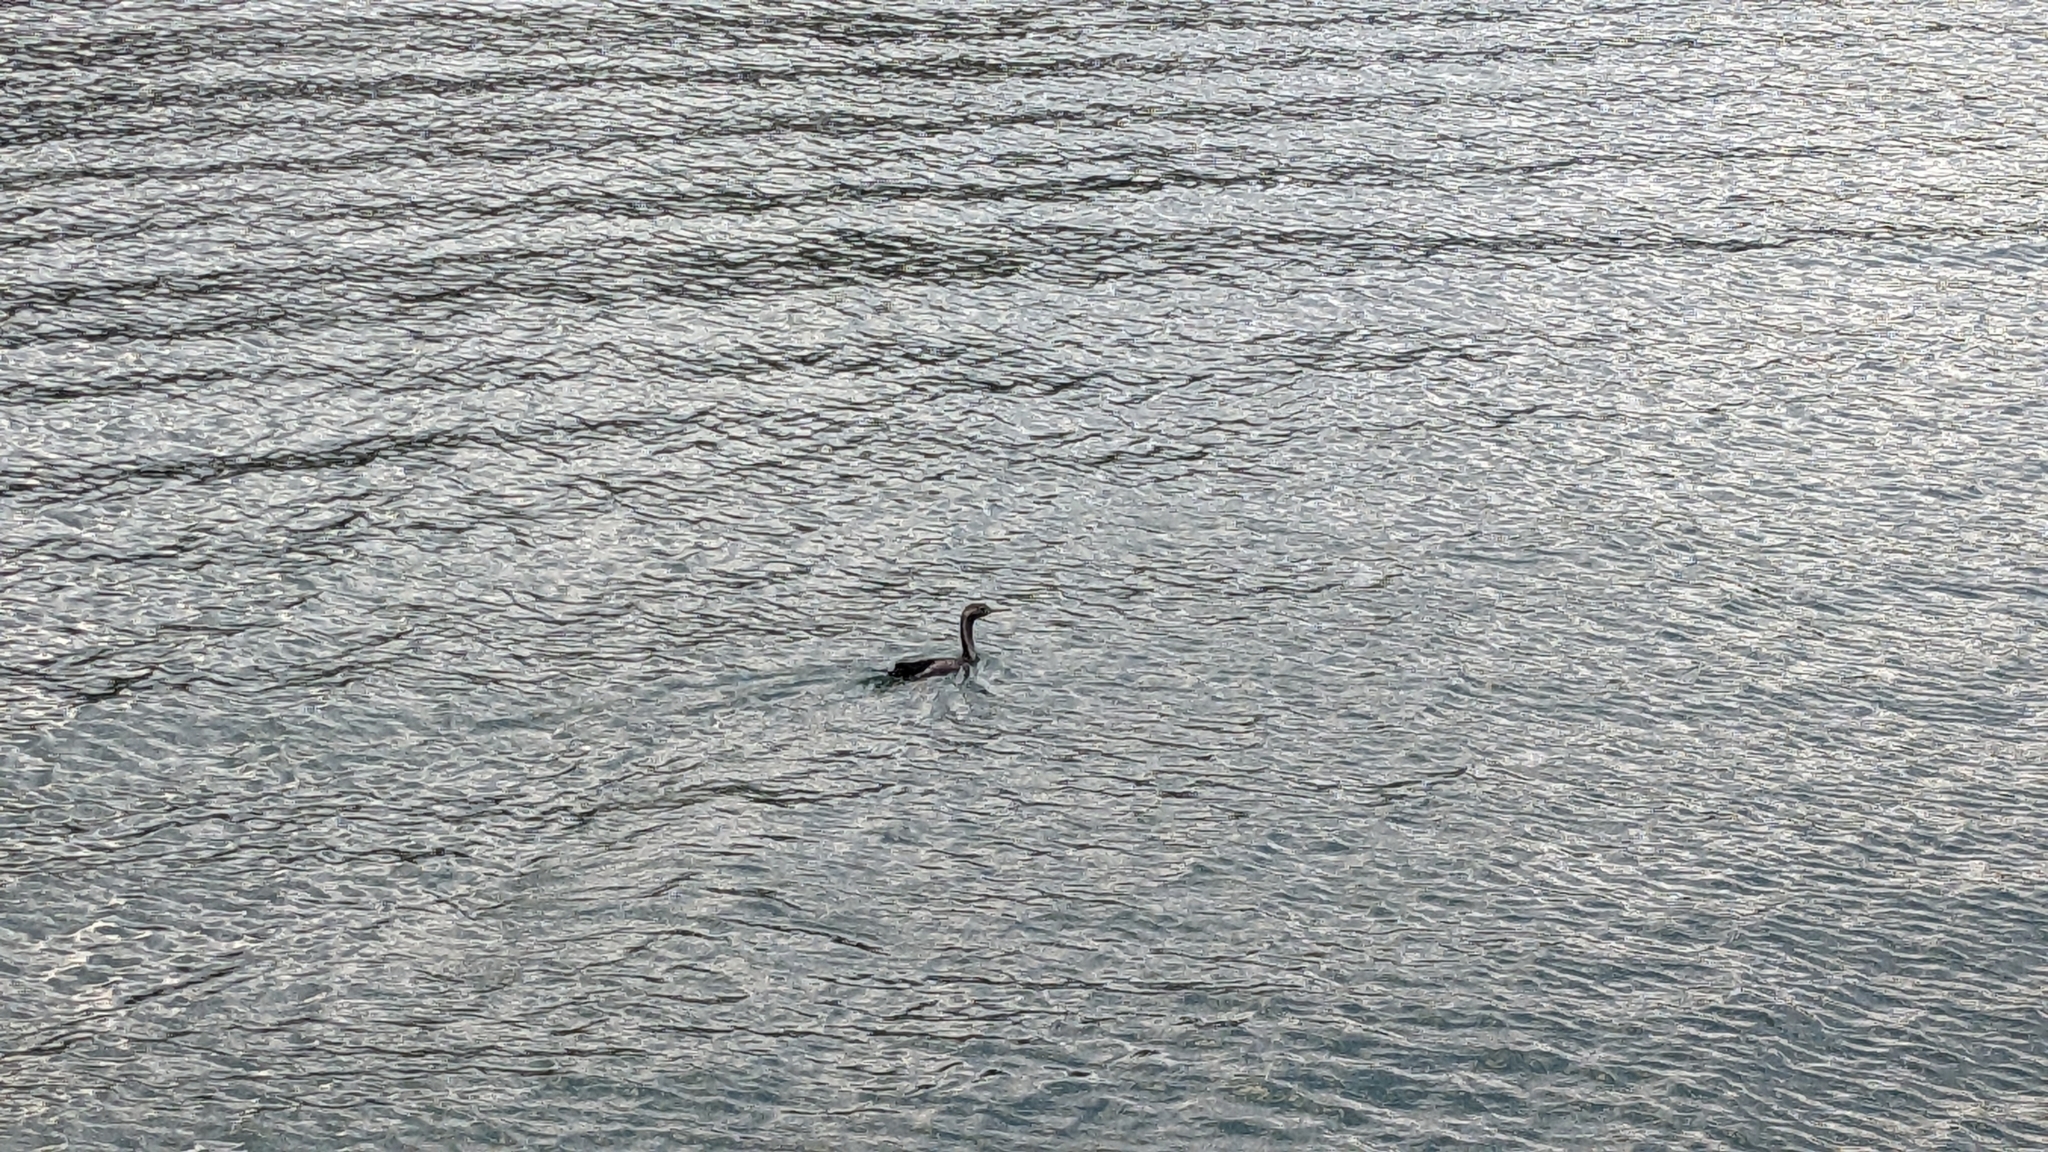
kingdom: Animalia
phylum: Chordata
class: Aves
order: Suliformes
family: Phalacrocoracidae
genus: Phalacrocorax
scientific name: Phalacrocorax punctatus
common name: Spotted shag
